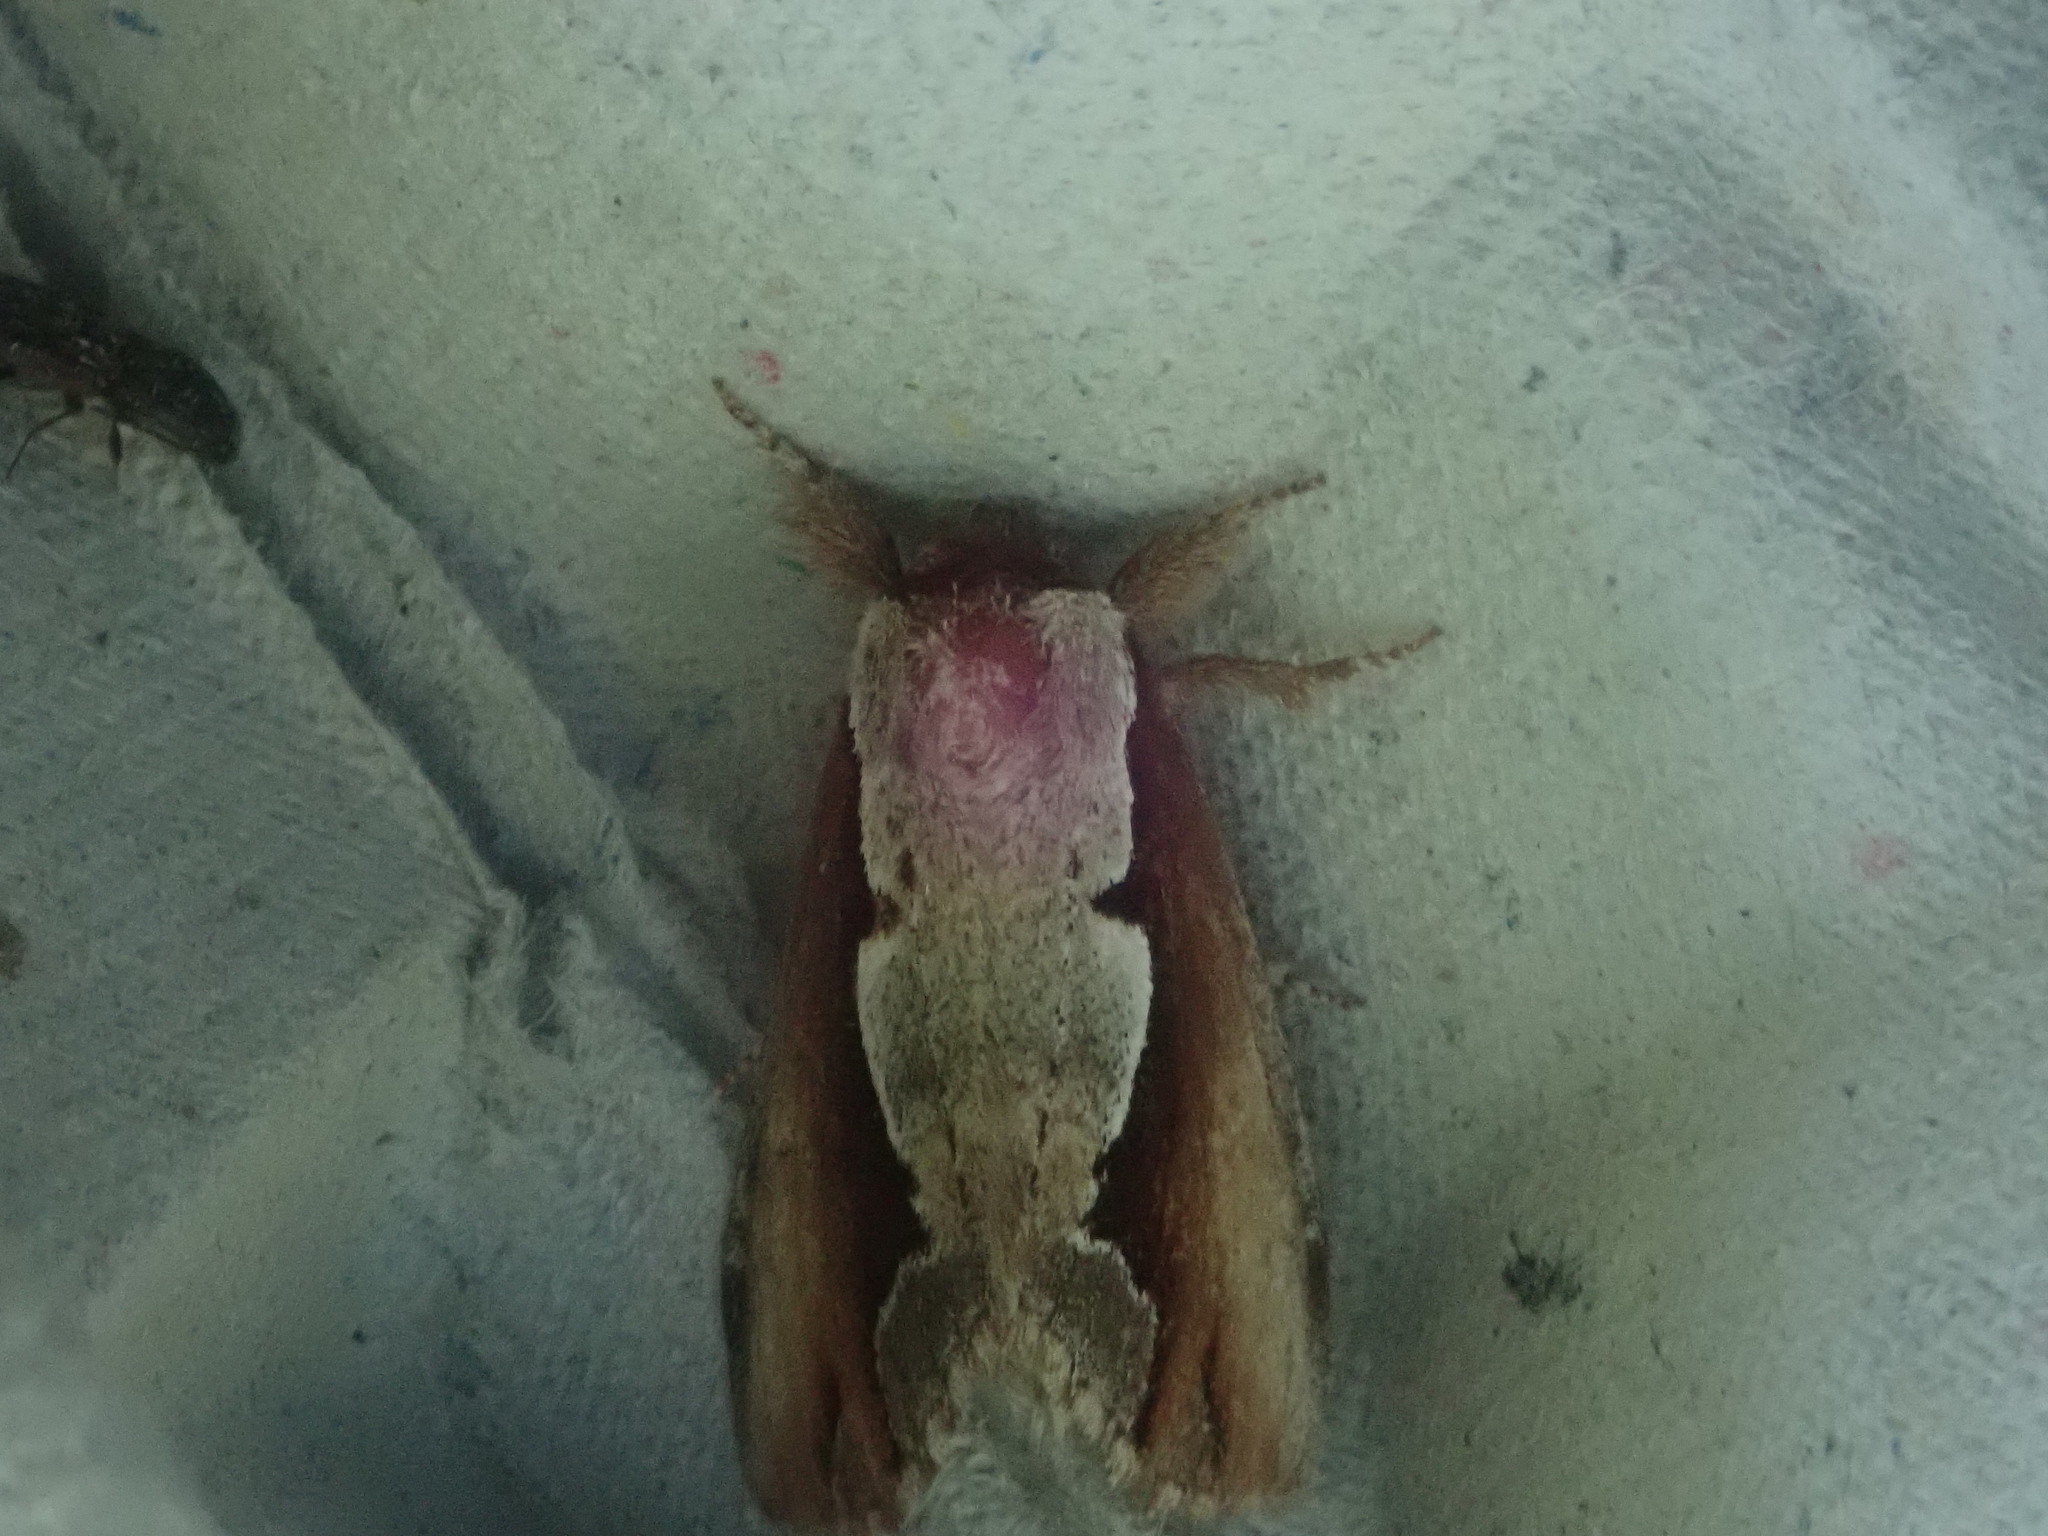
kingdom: Animalia
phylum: Arthropoda
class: Insecta
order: Lepidoptera
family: Notodontidae
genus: Nerice
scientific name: Nerice bidentata
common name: Double-toothed prominent
